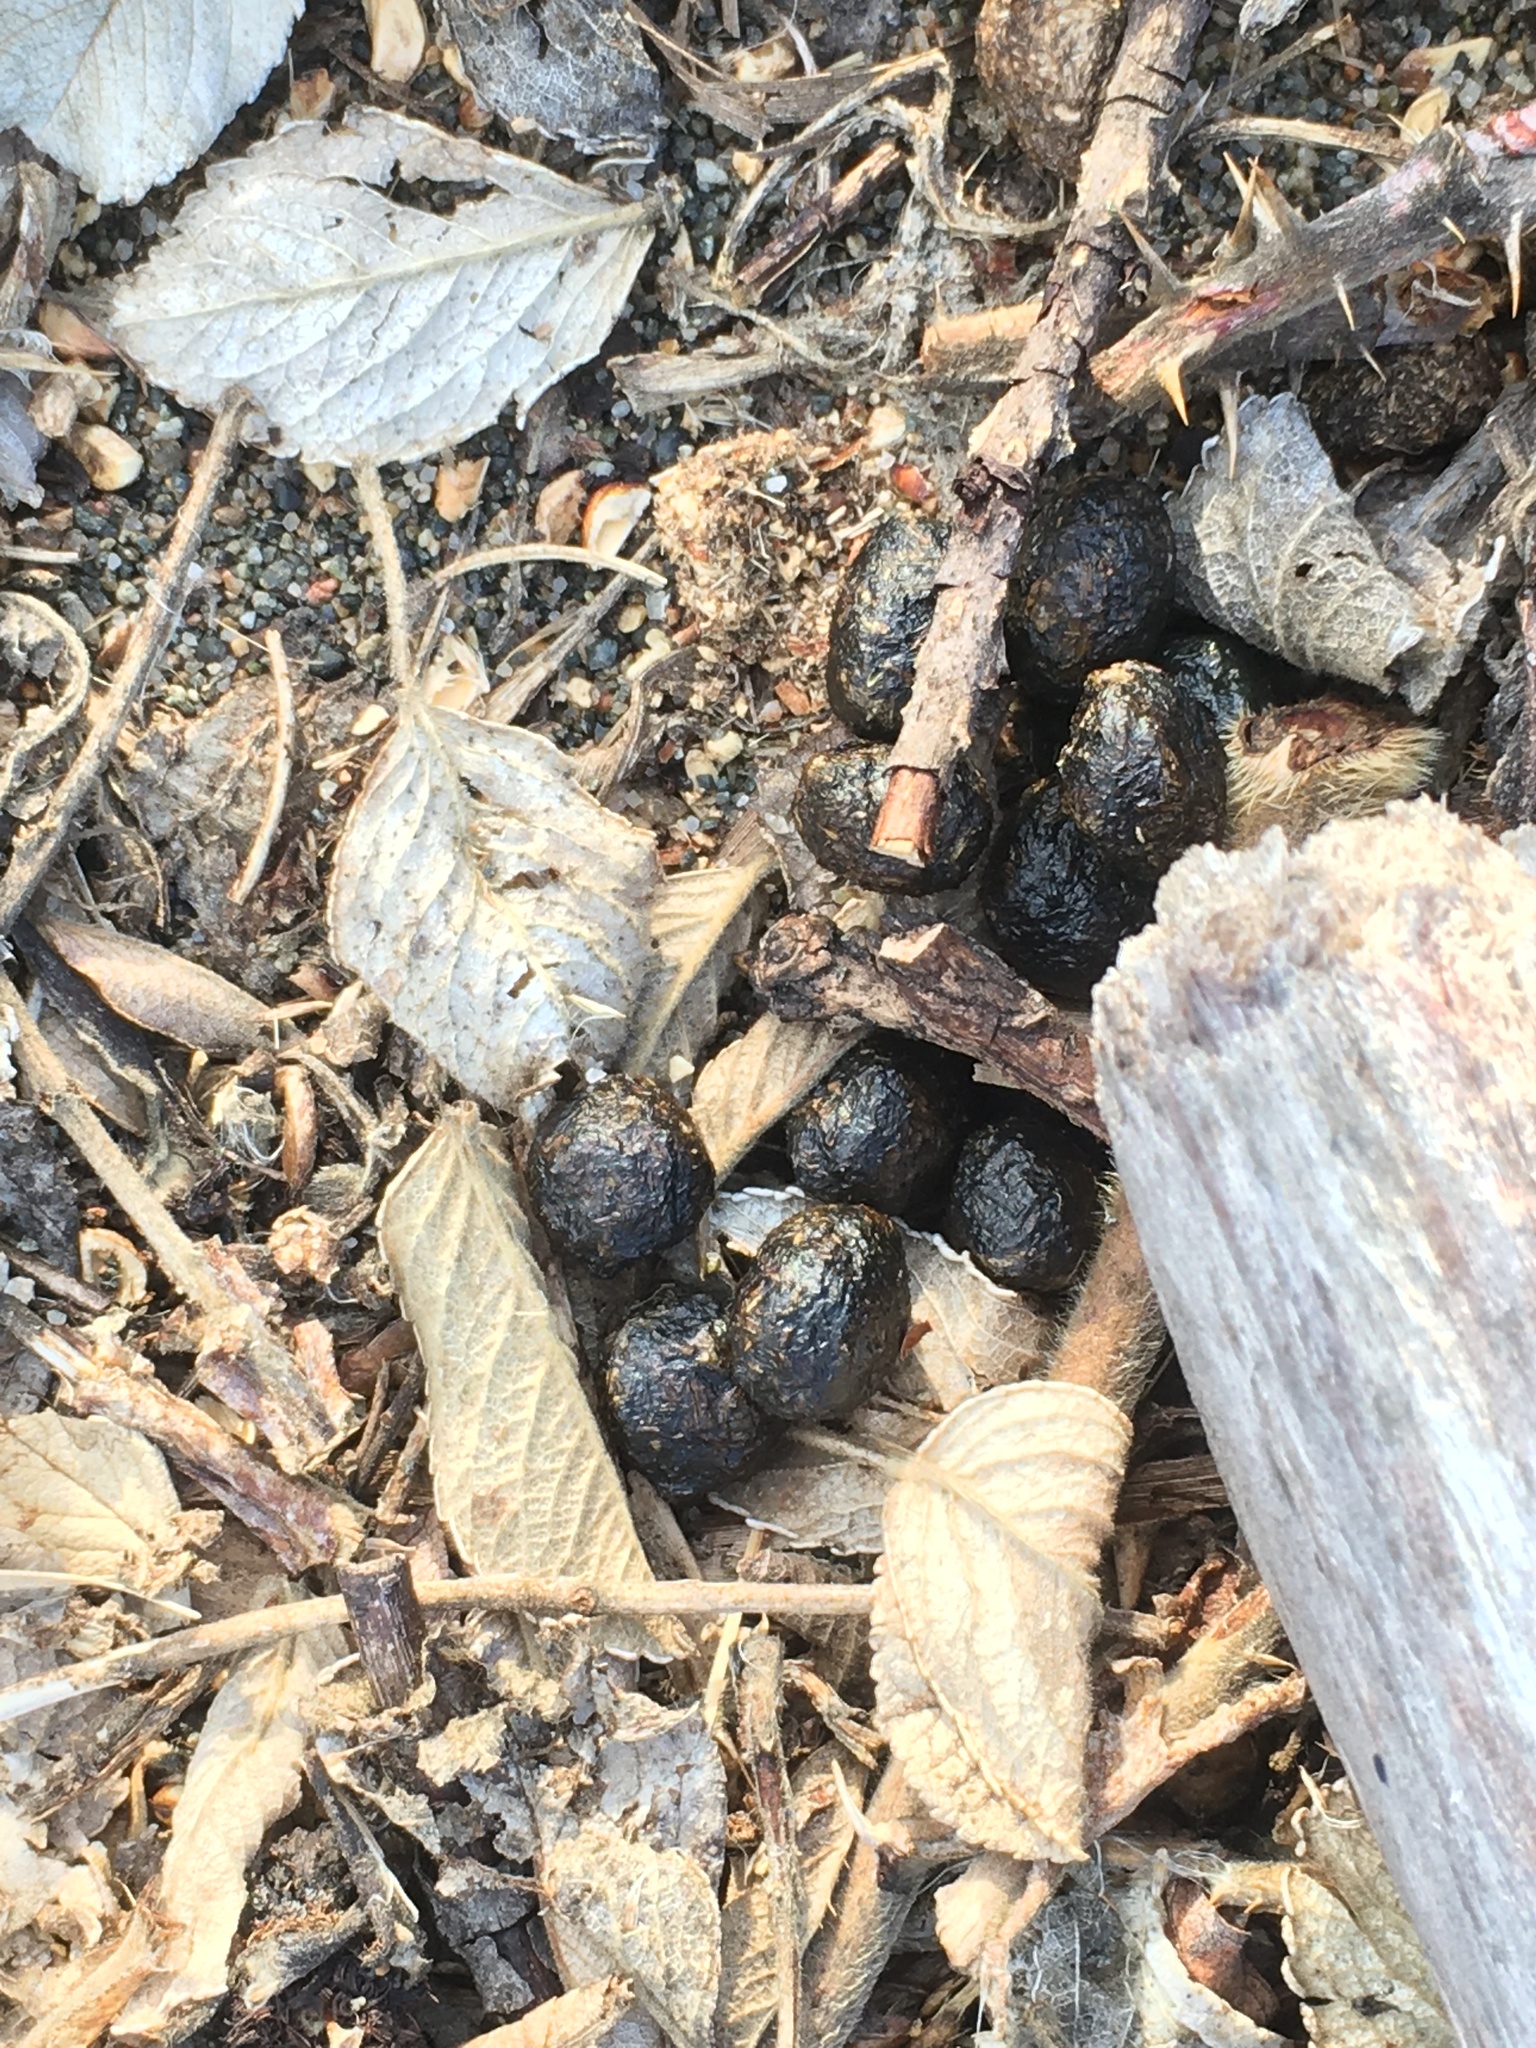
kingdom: Animalia
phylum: Chordata
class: Mammalia
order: Lagomorpha
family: Leporidae
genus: Sylvilagus
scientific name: Sylvilagus floridanus
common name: Eastern cottontail
